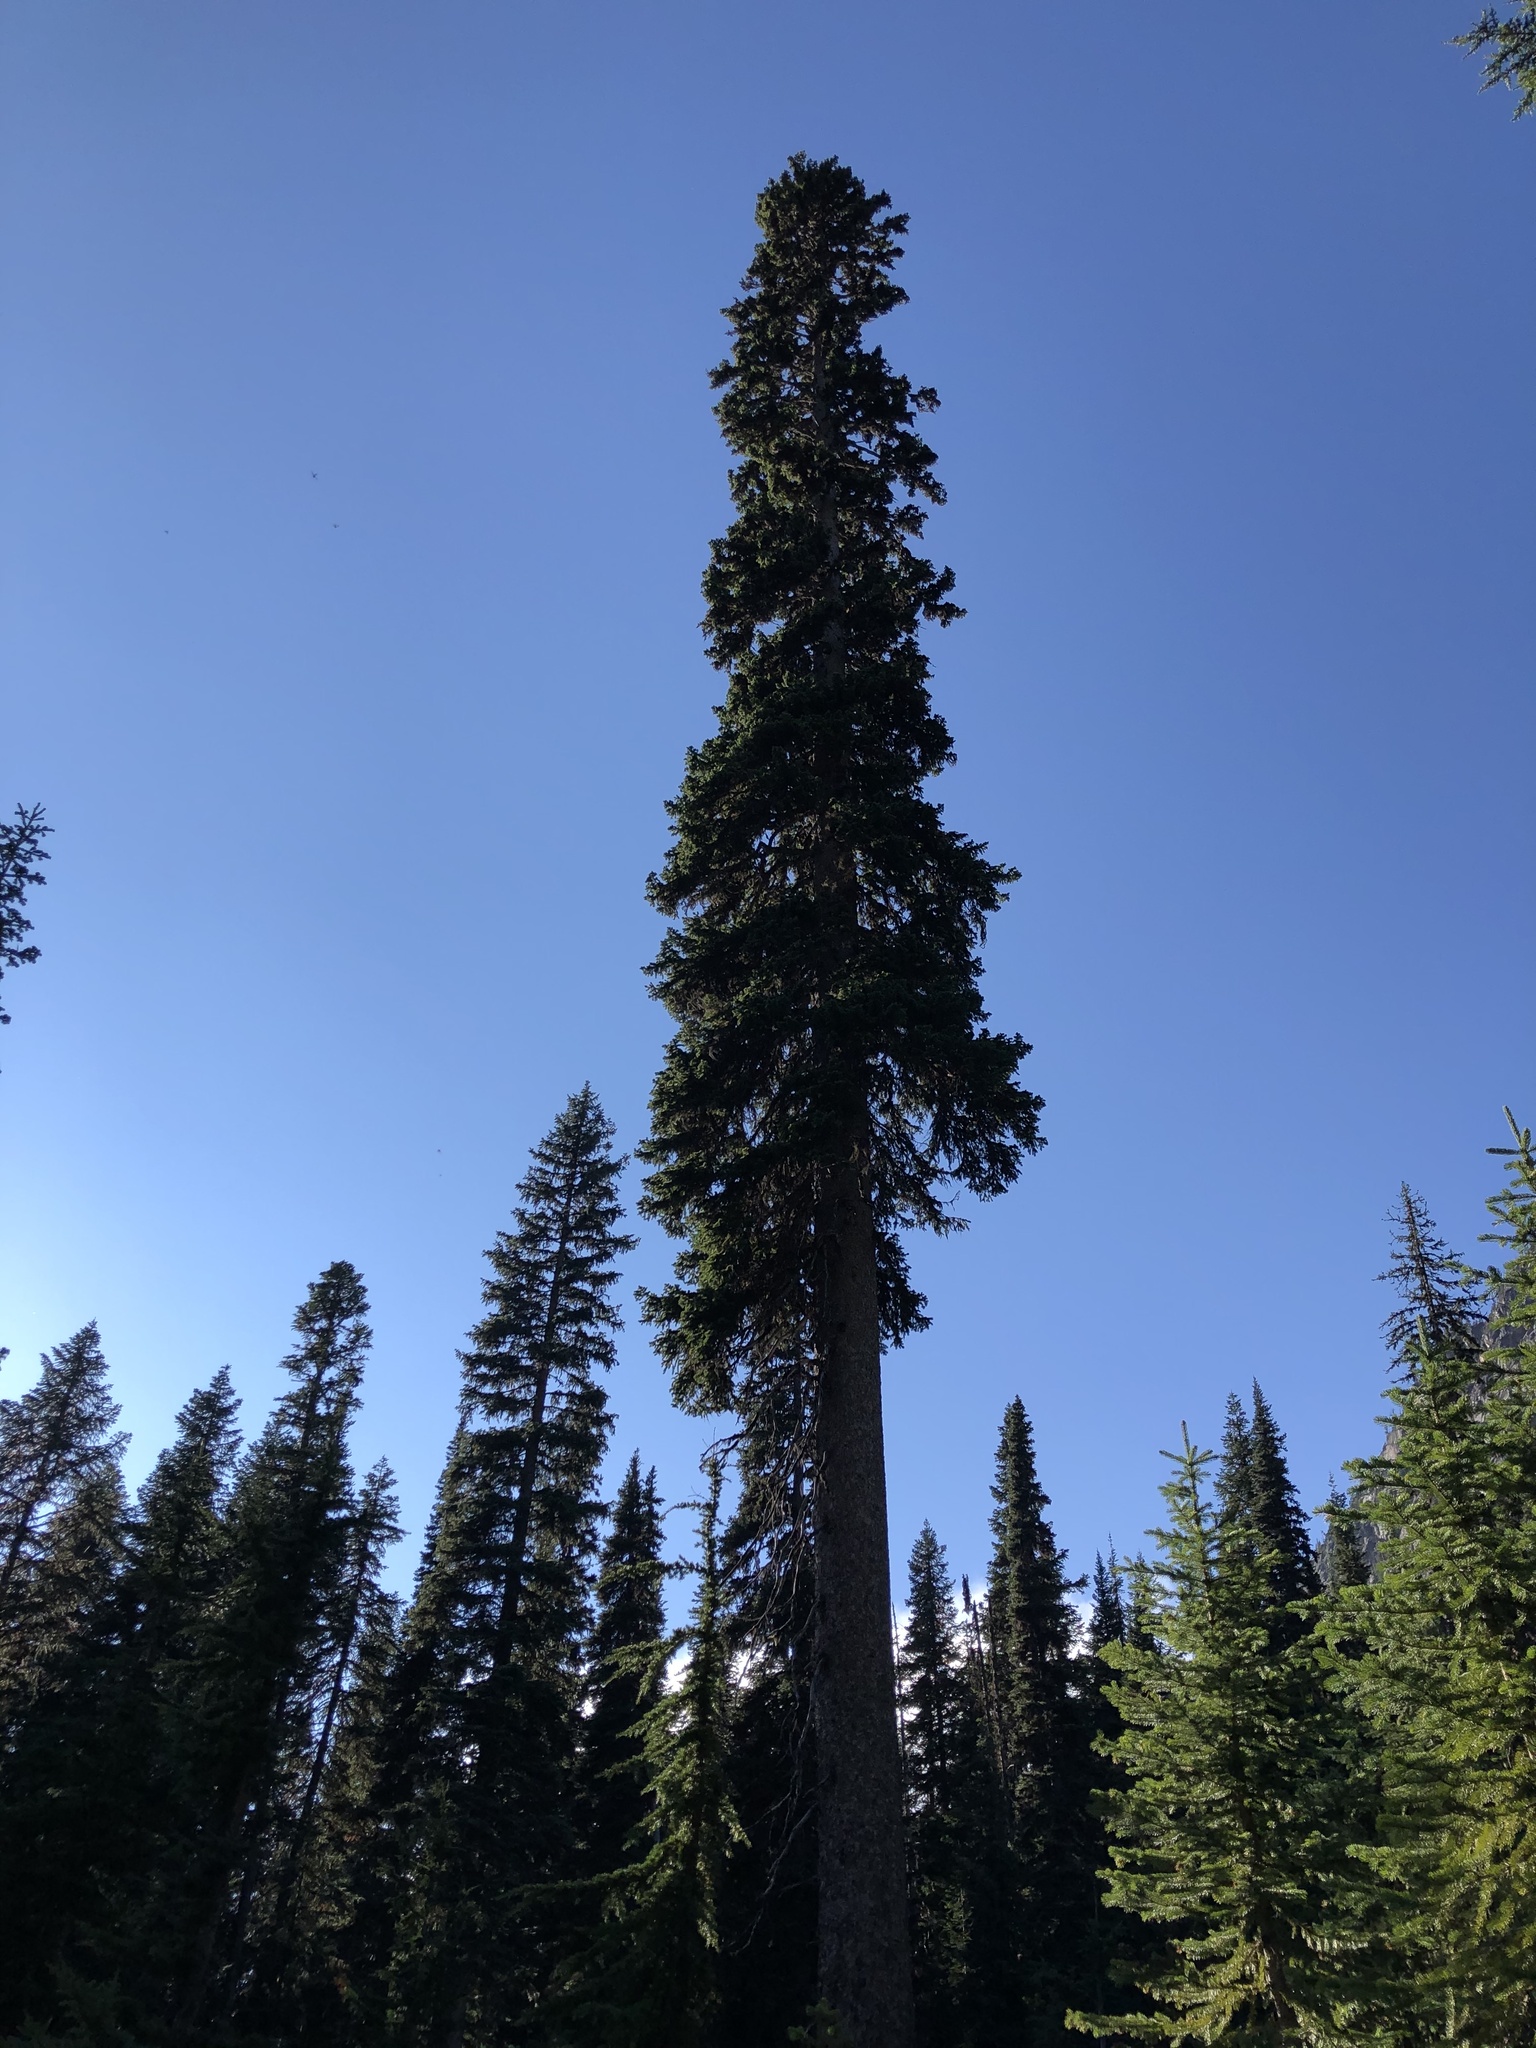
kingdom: Plantae
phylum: Tracheophyta
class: Pinopsida
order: Pinales
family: Pinaceae
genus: Picea
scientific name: Picea engelmannii
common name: Engelmann spruce
